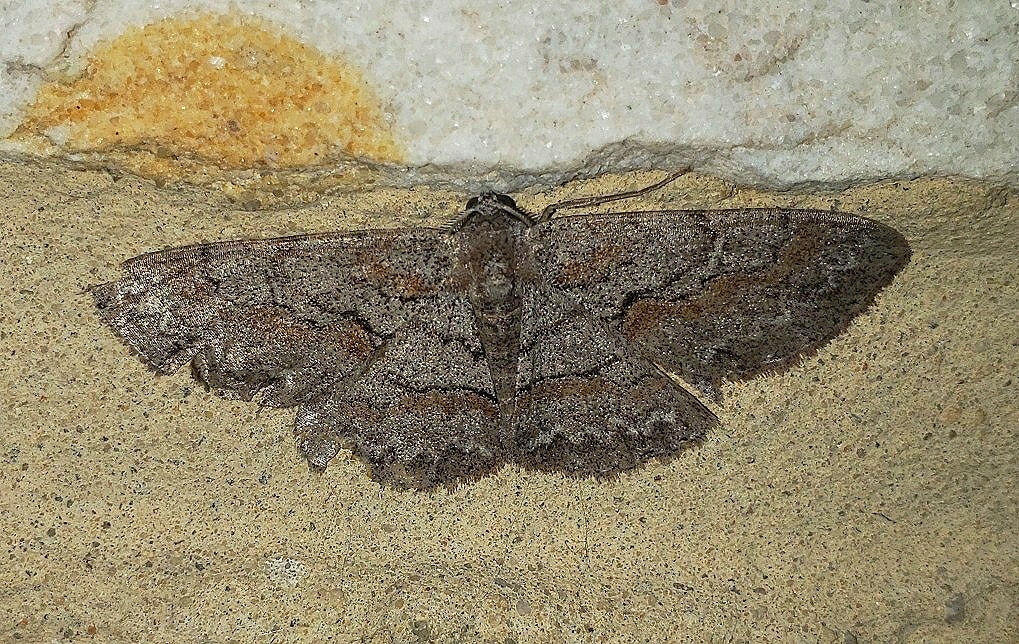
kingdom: Animalia
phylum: Arthropoda
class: Insecta
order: Lepidoptera
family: Geometridae
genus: Iridopsis
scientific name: Iridopsis vellivolata
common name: Large purplish gray
